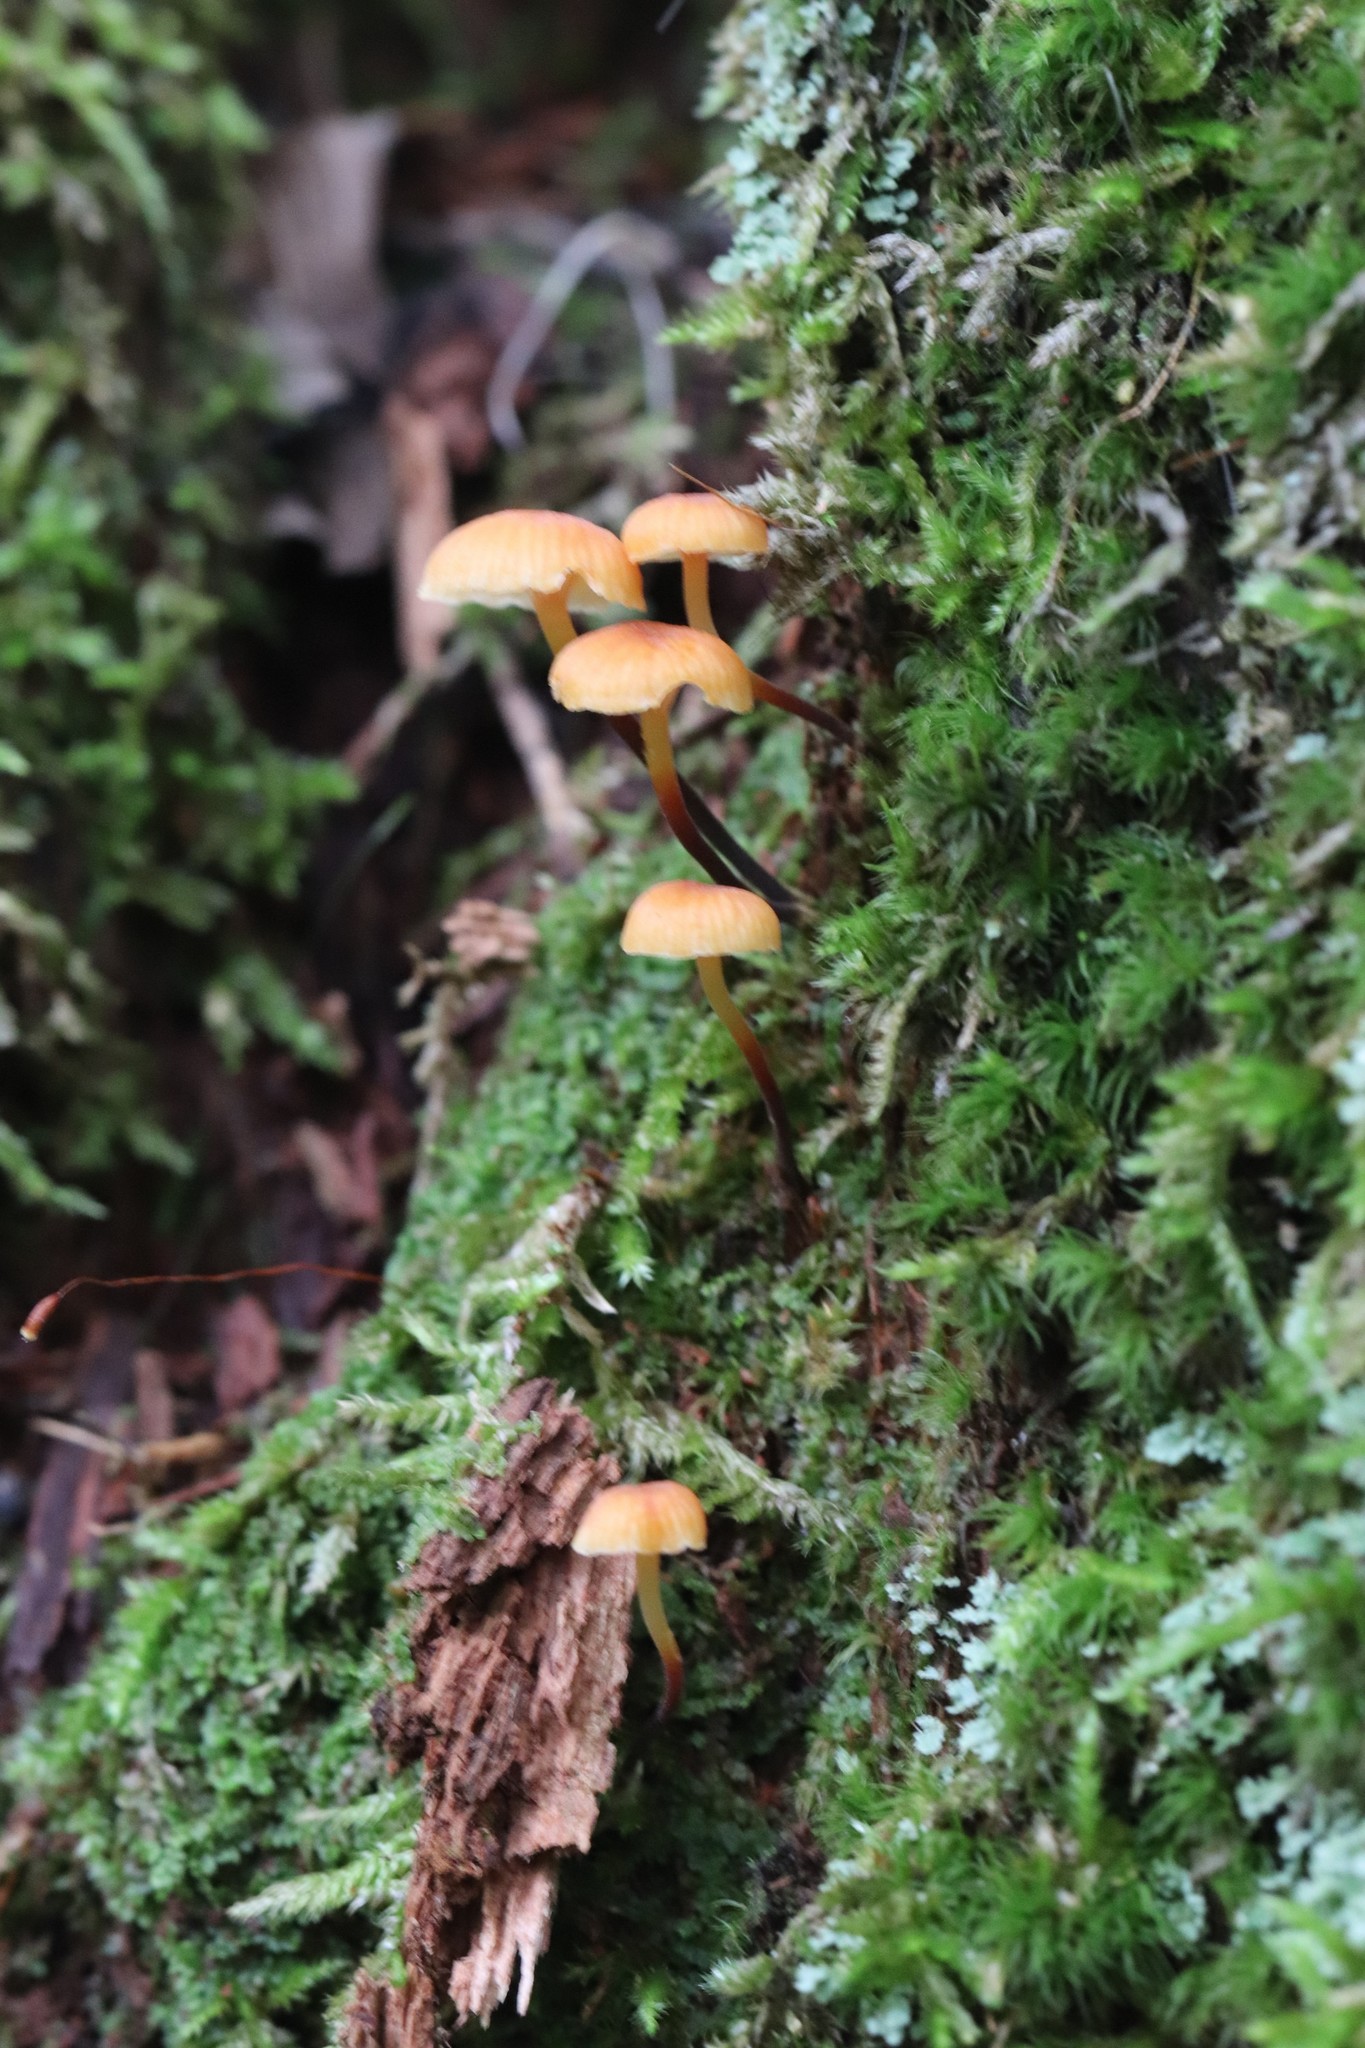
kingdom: Fungi
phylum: Basidiomycota
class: Agaricomycetes
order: Agaricales
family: Mycenaceae
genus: Xeromphalina
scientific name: Xeromphalina campanella
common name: Pinewood gingertail
